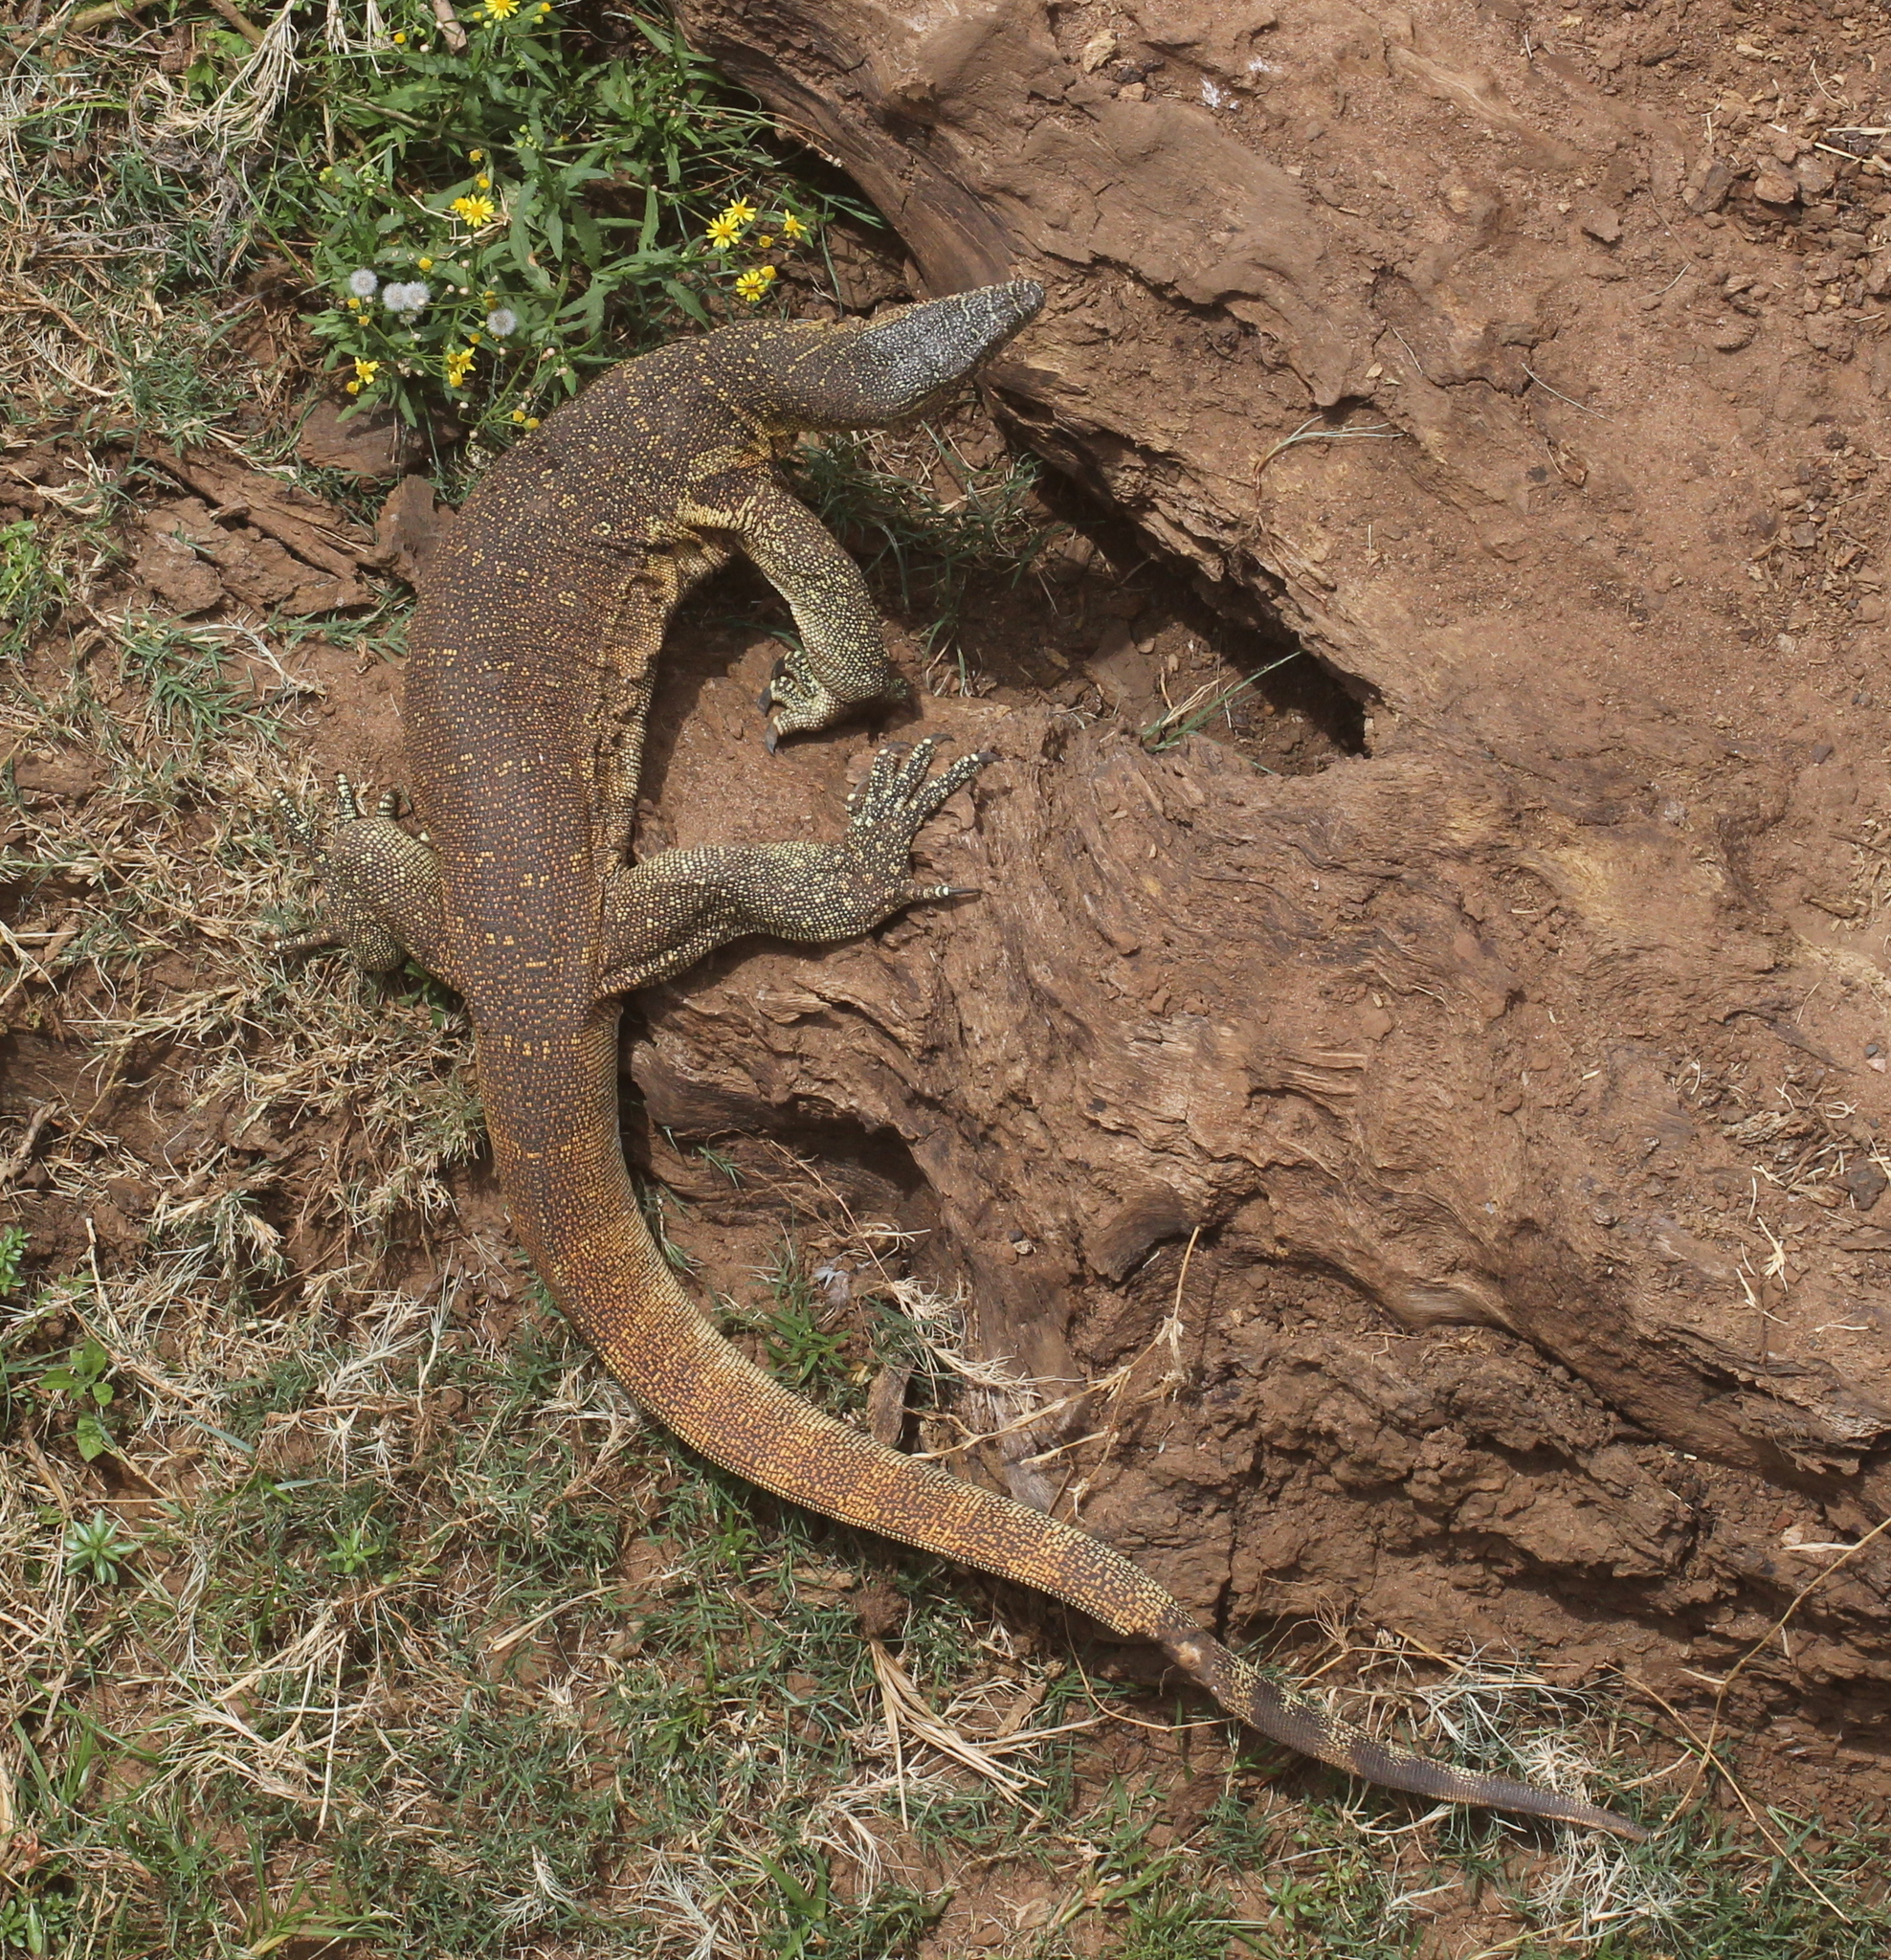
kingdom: Animalia
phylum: Chordata
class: Squamata
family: Varanidae
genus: Varanus
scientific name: Varanus niloticus
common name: Nile monitor
